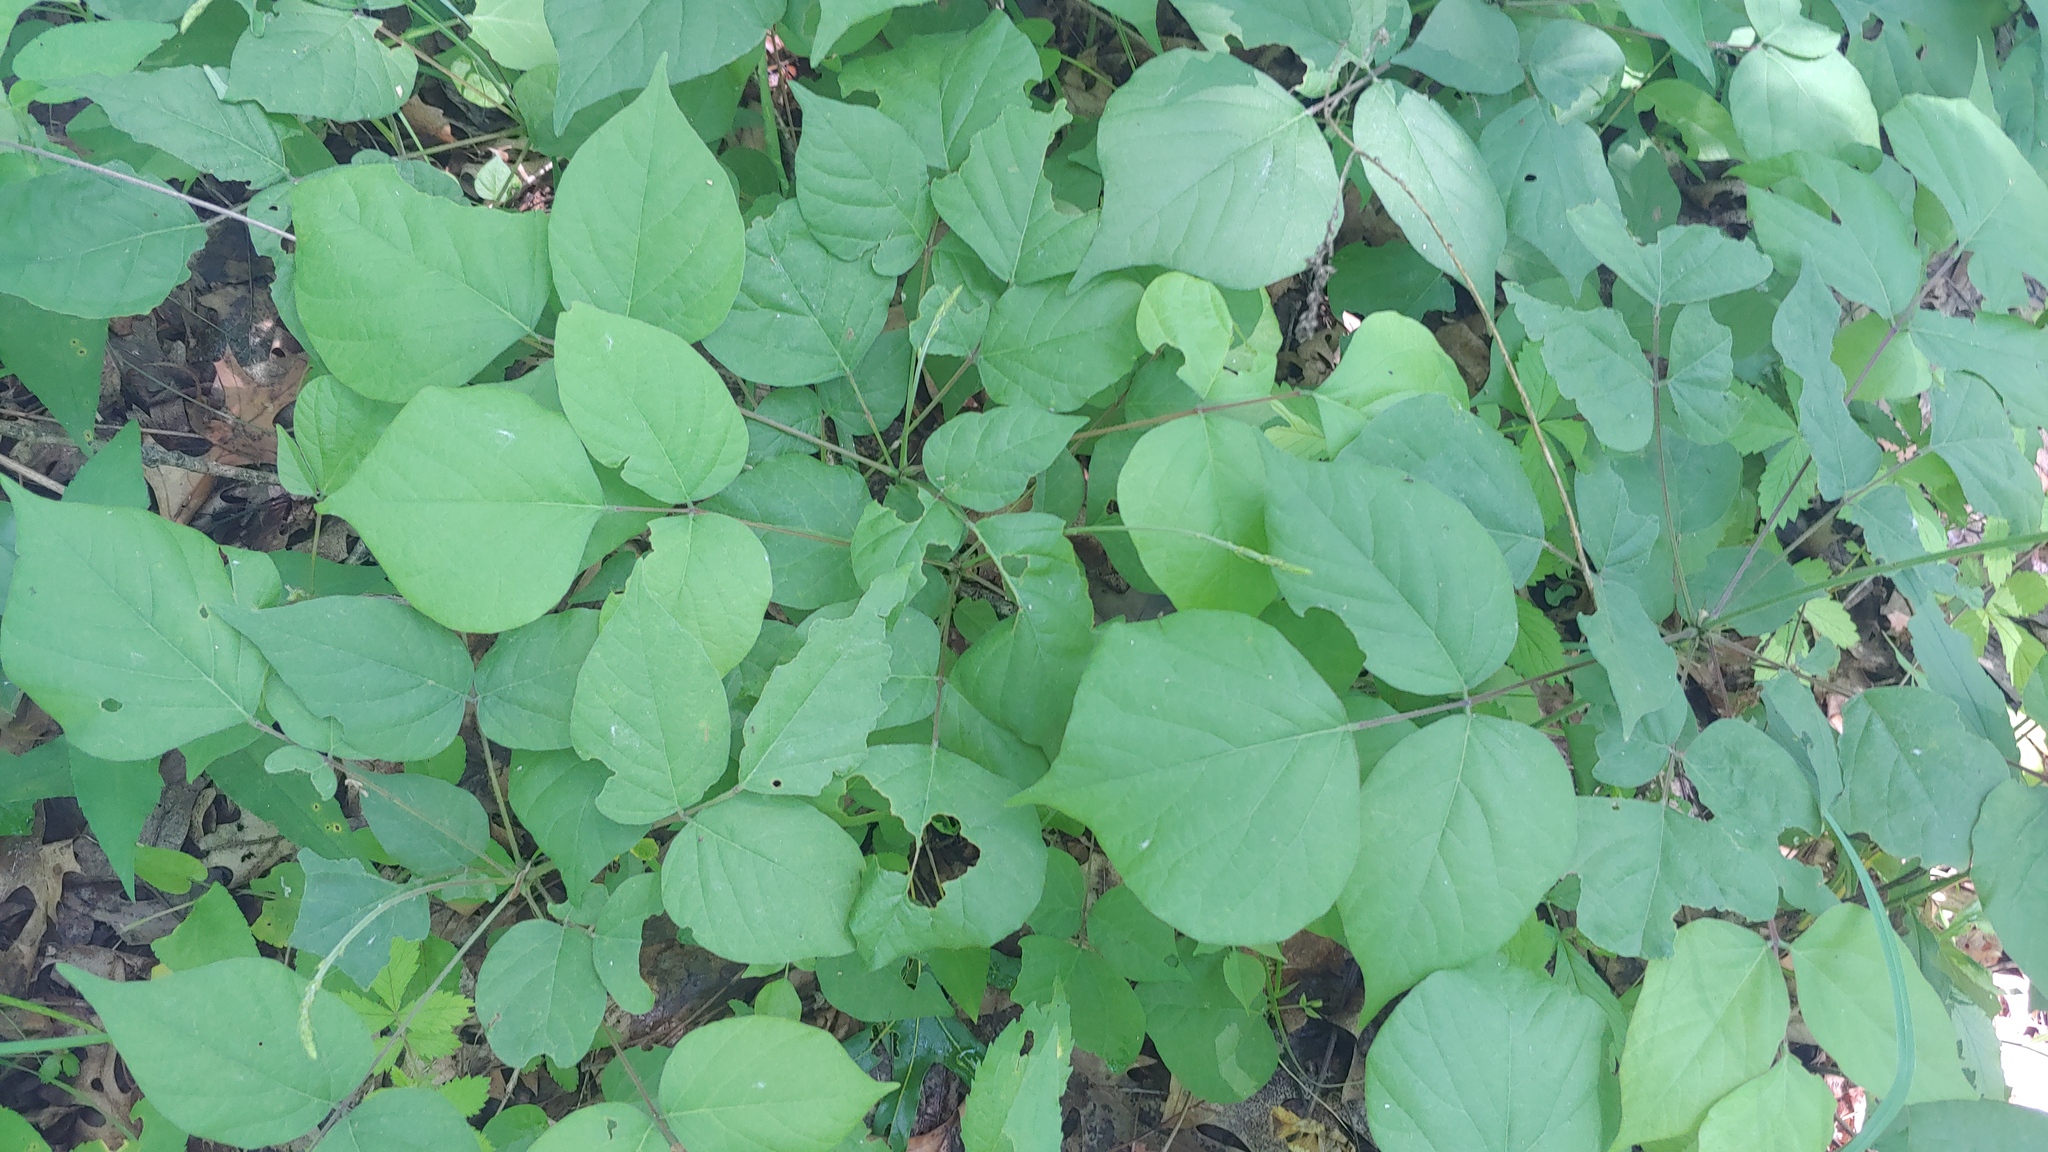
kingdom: Plantae
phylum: Tracheophyta
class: Magnoliopsida
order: Fabales
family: Fabaceae
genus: Hylodesmum
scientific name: Hylodesmum glutinosum
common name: Clustered-leaved tick-trefoil
